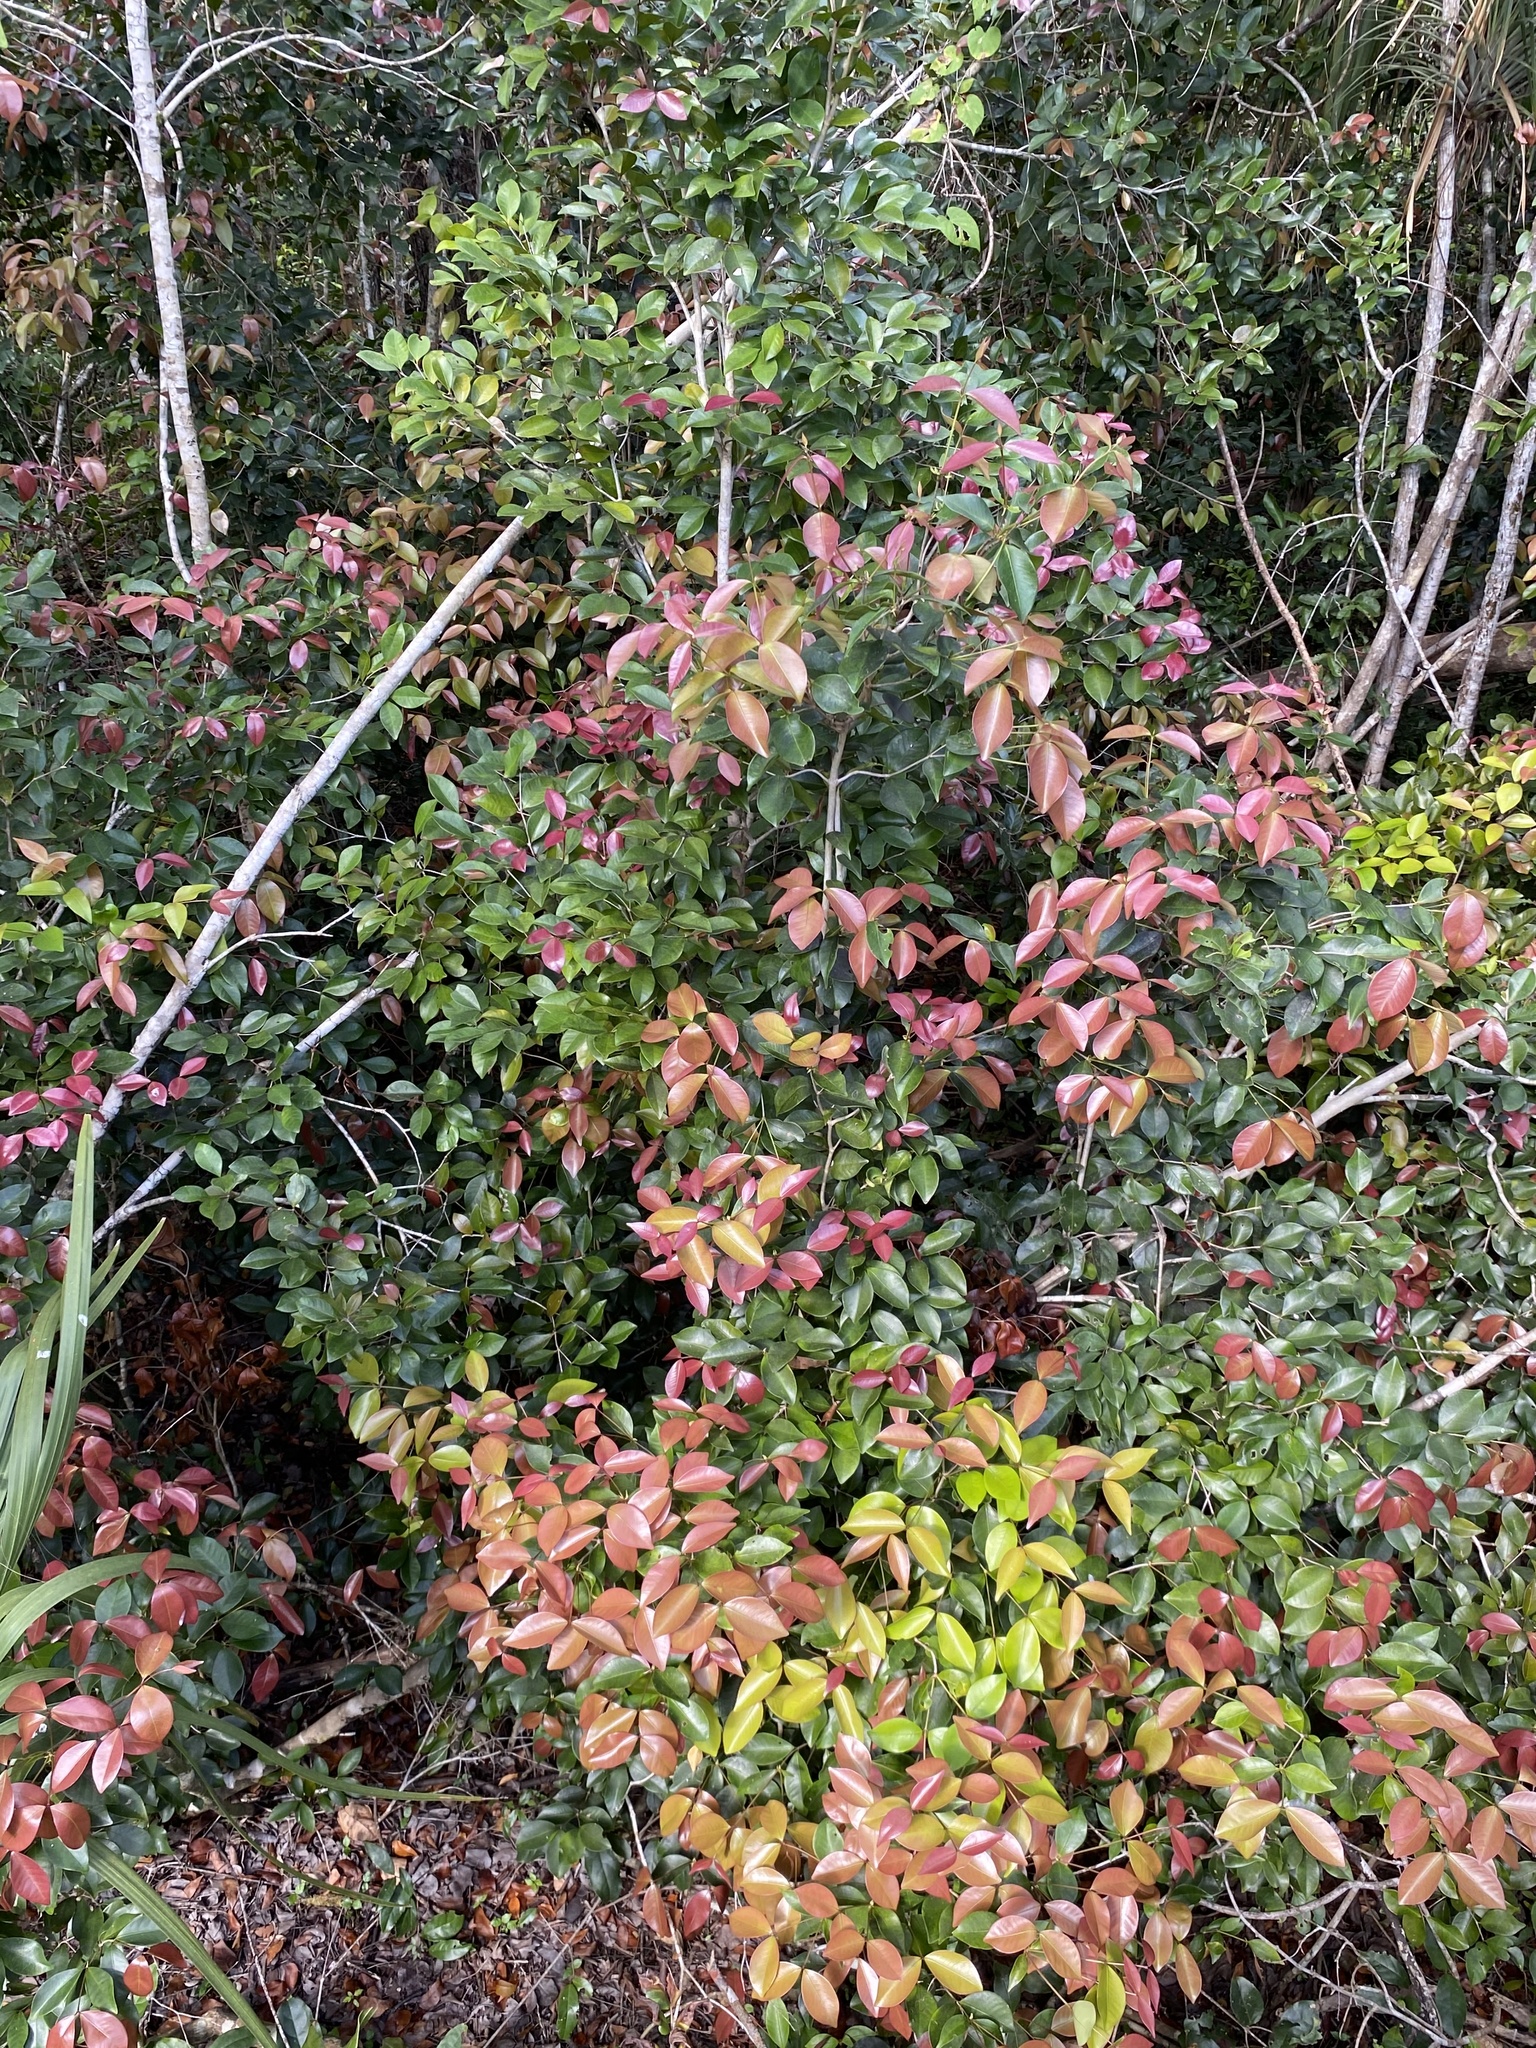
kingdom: Plantae
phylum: Tracheophyta
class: Magnoliopsida
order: Myrtales
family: Myrtaceae
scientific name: Myrtaceae
